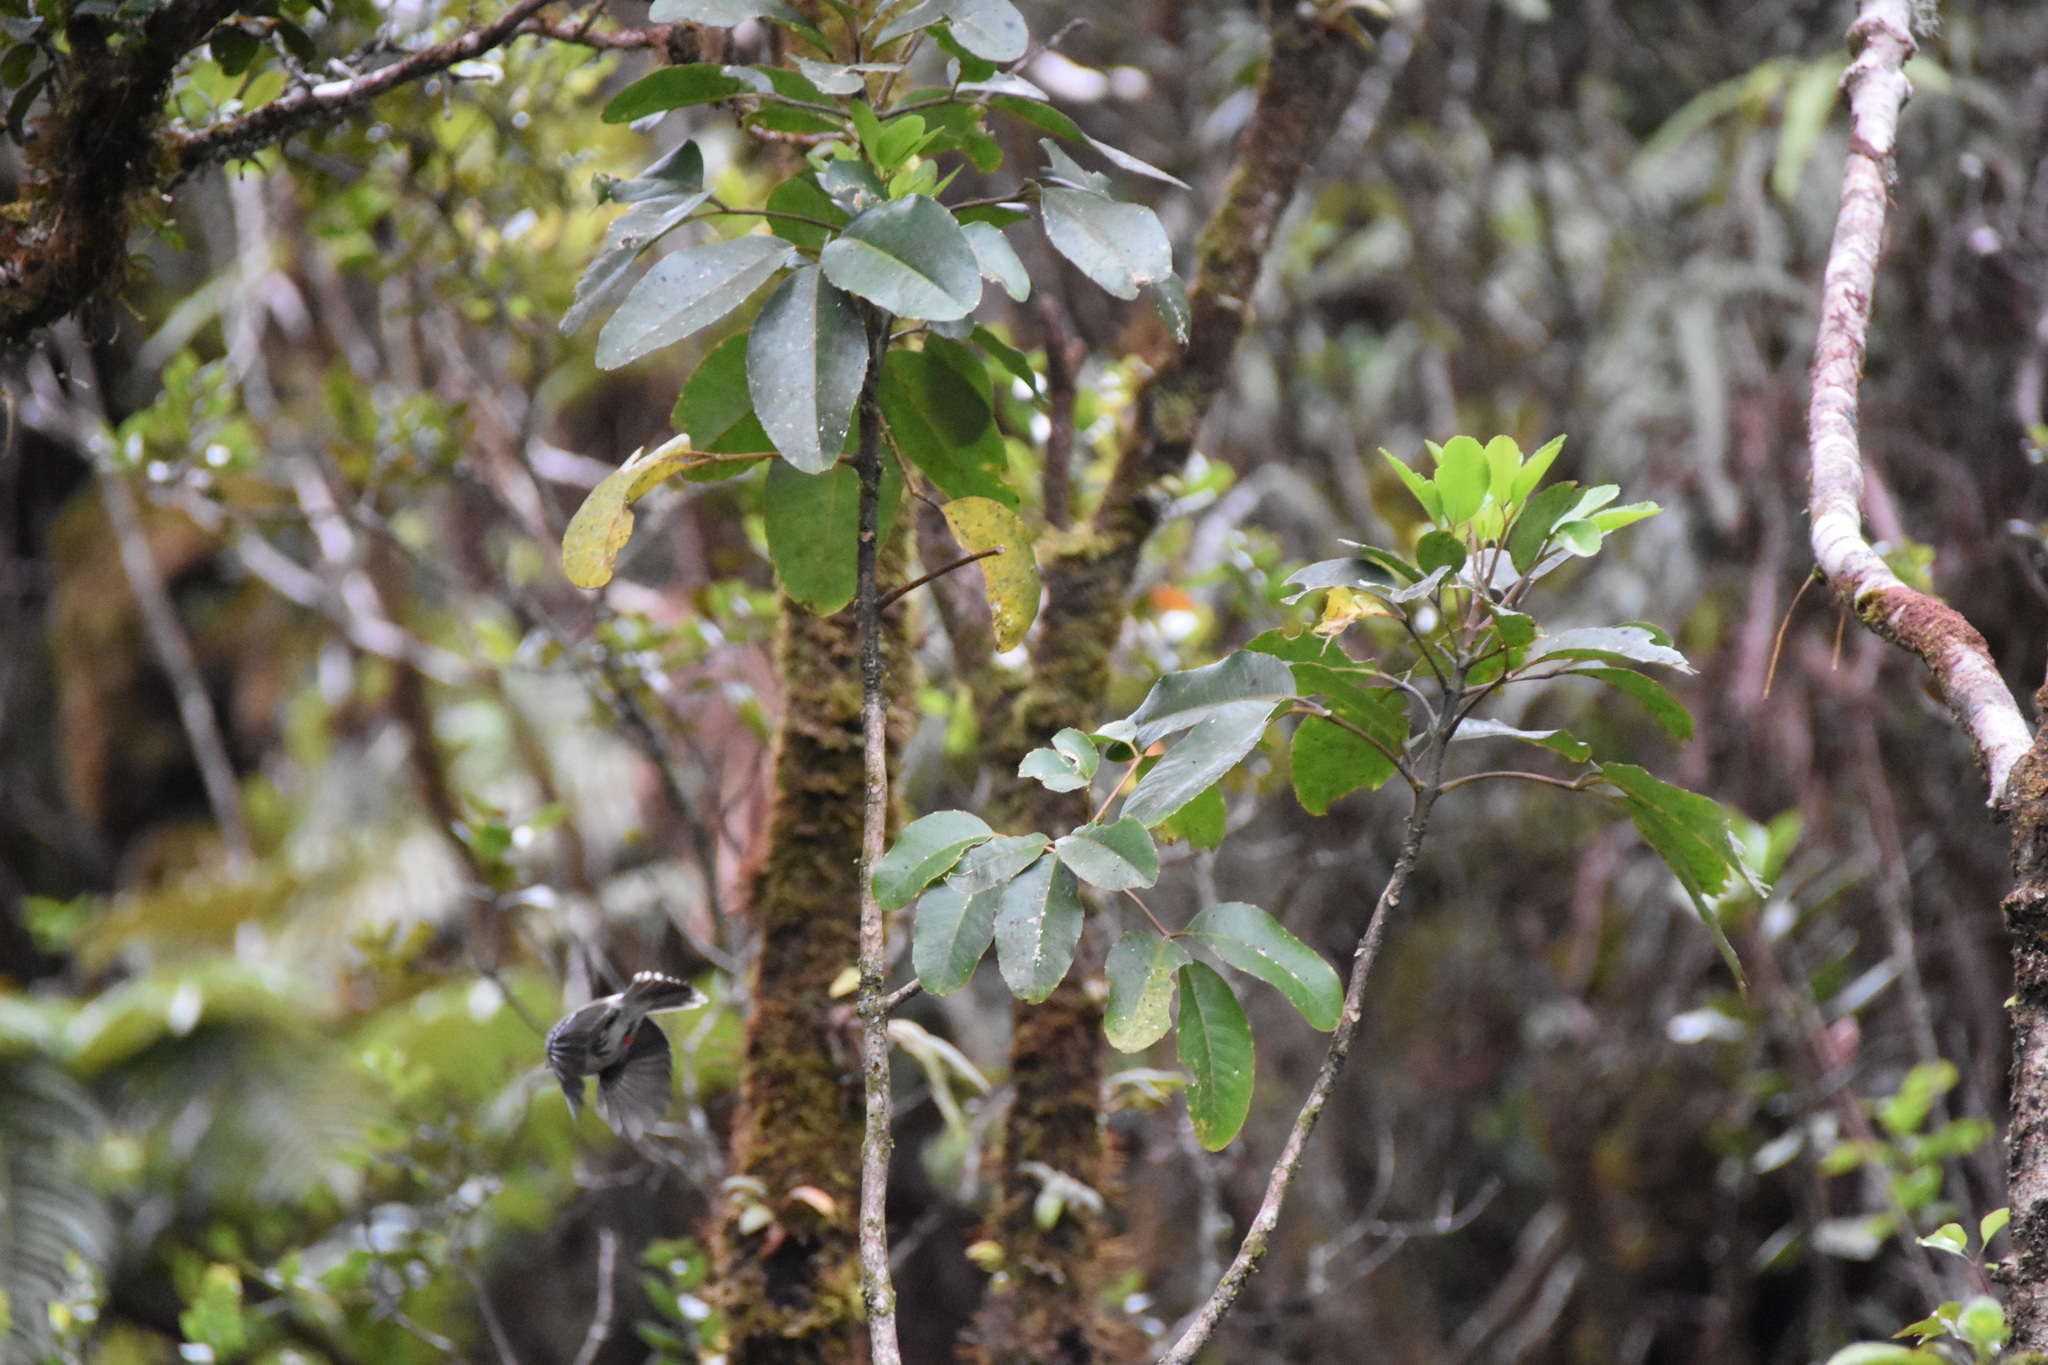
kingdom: Plantae
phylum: Tracheophyta
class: Magnoliopsida
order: Apiales
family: Araliaceae
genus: Cheirodendron
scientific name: Cheirodendron trigynum
